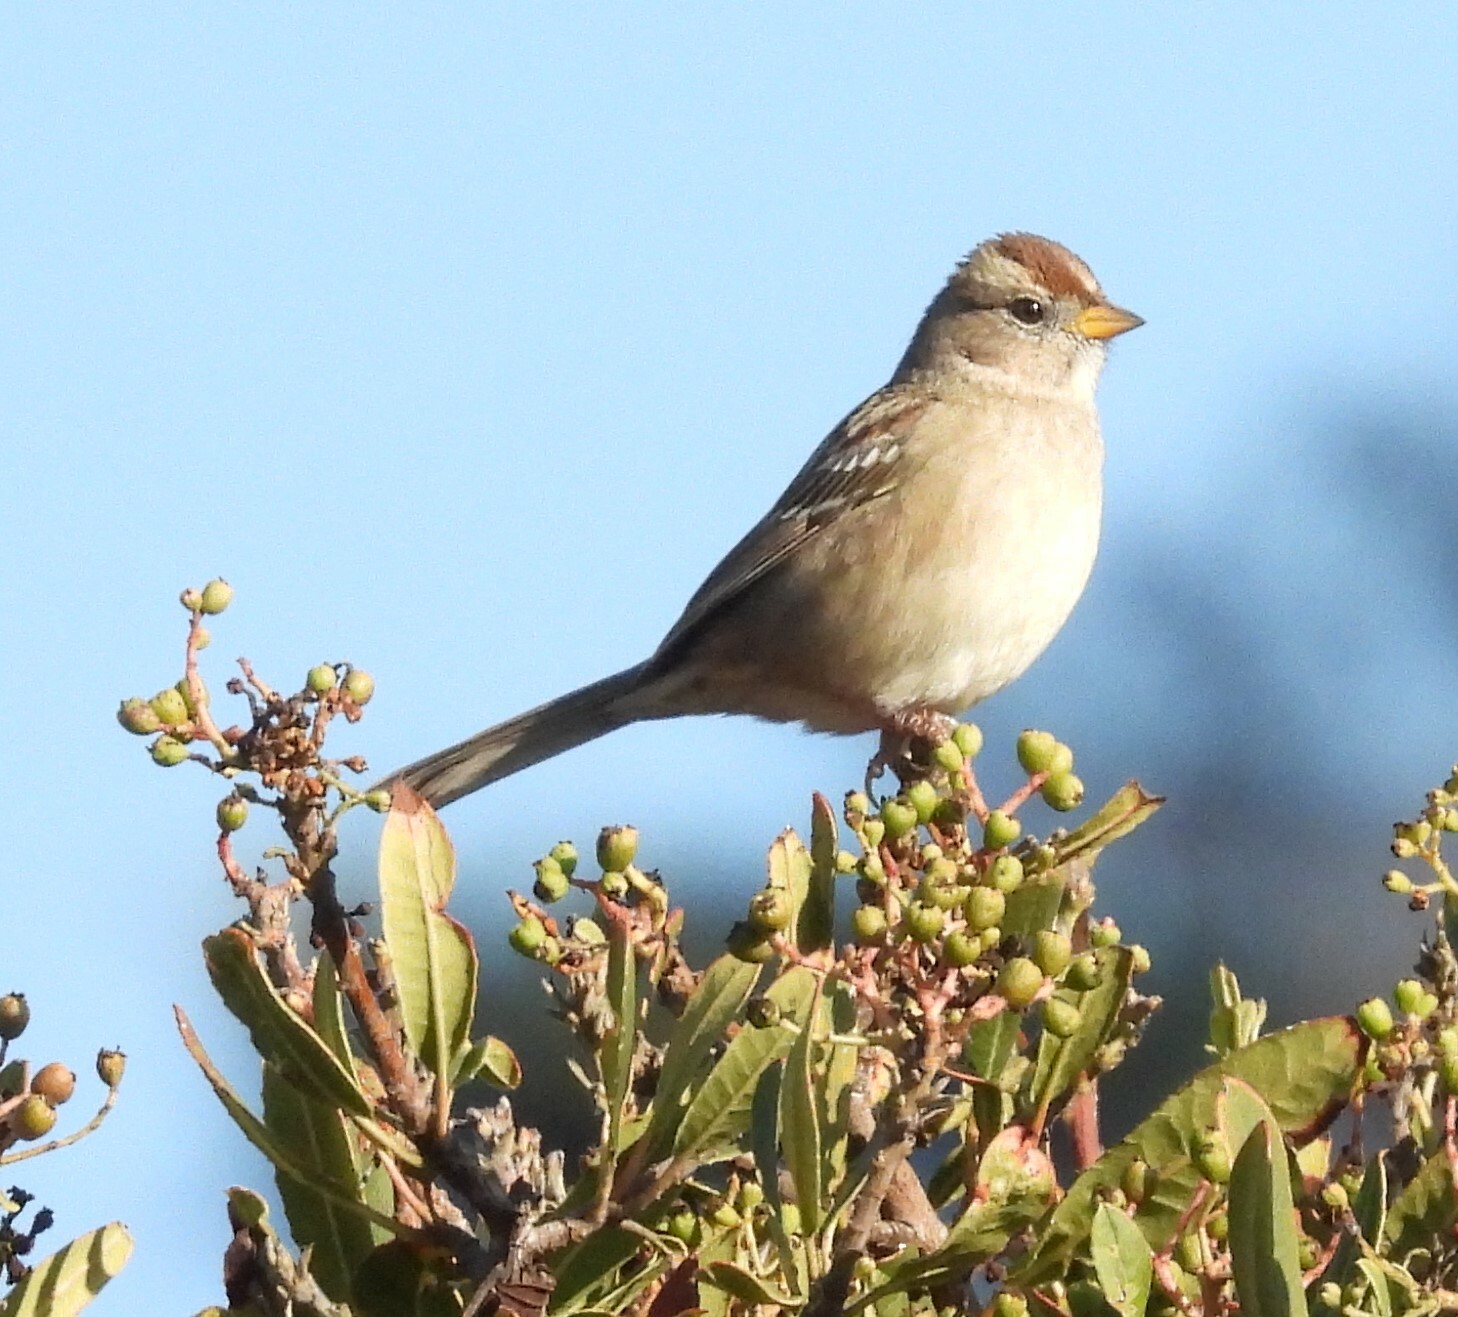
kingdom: Animalia
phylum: Chordata
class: Aves
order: Passeriformes
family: Passerellidae
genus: Zonotrichia
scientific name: Zonotrichia leucophrys
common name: White-crowned sparrow
